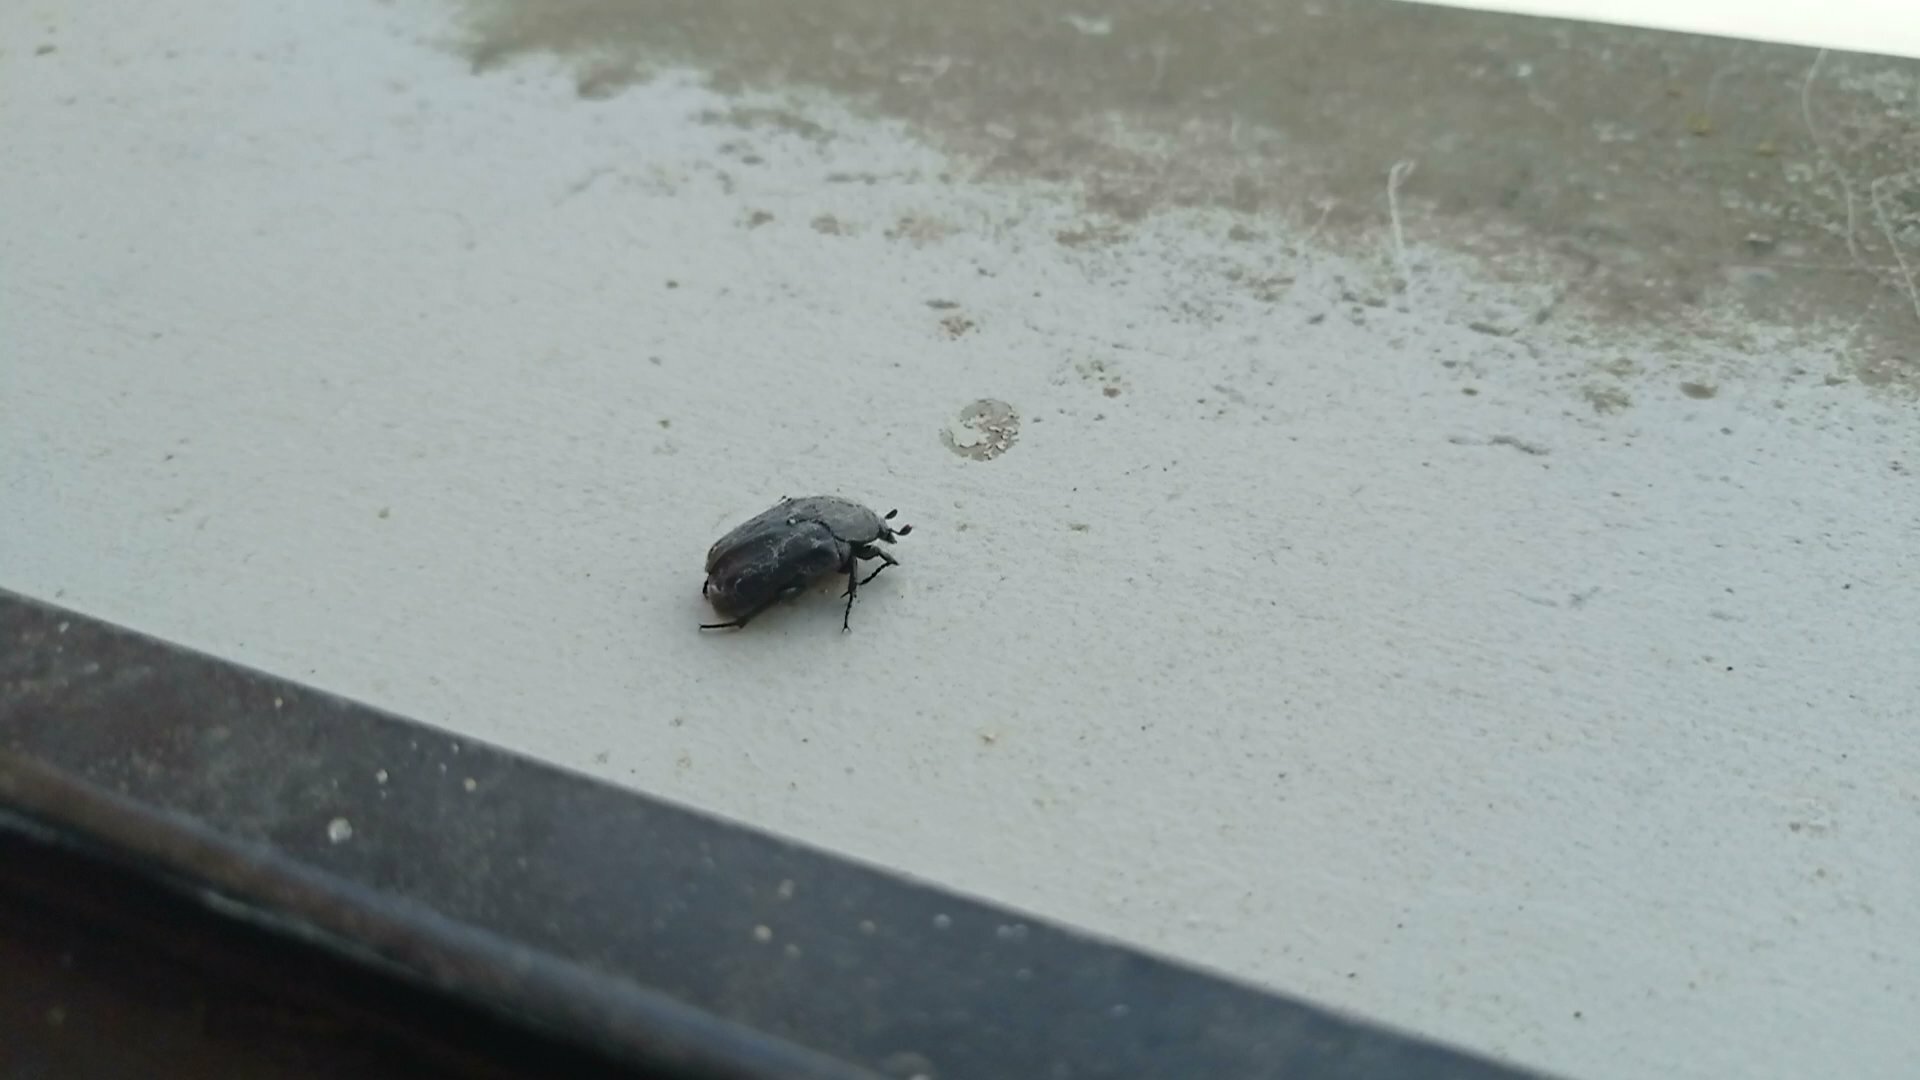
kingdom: Animalia
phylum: Arthropoda
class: Insecta
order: Coleoptera
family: Scarabaeidae
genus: Protaetia
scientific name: Protaetia morio
